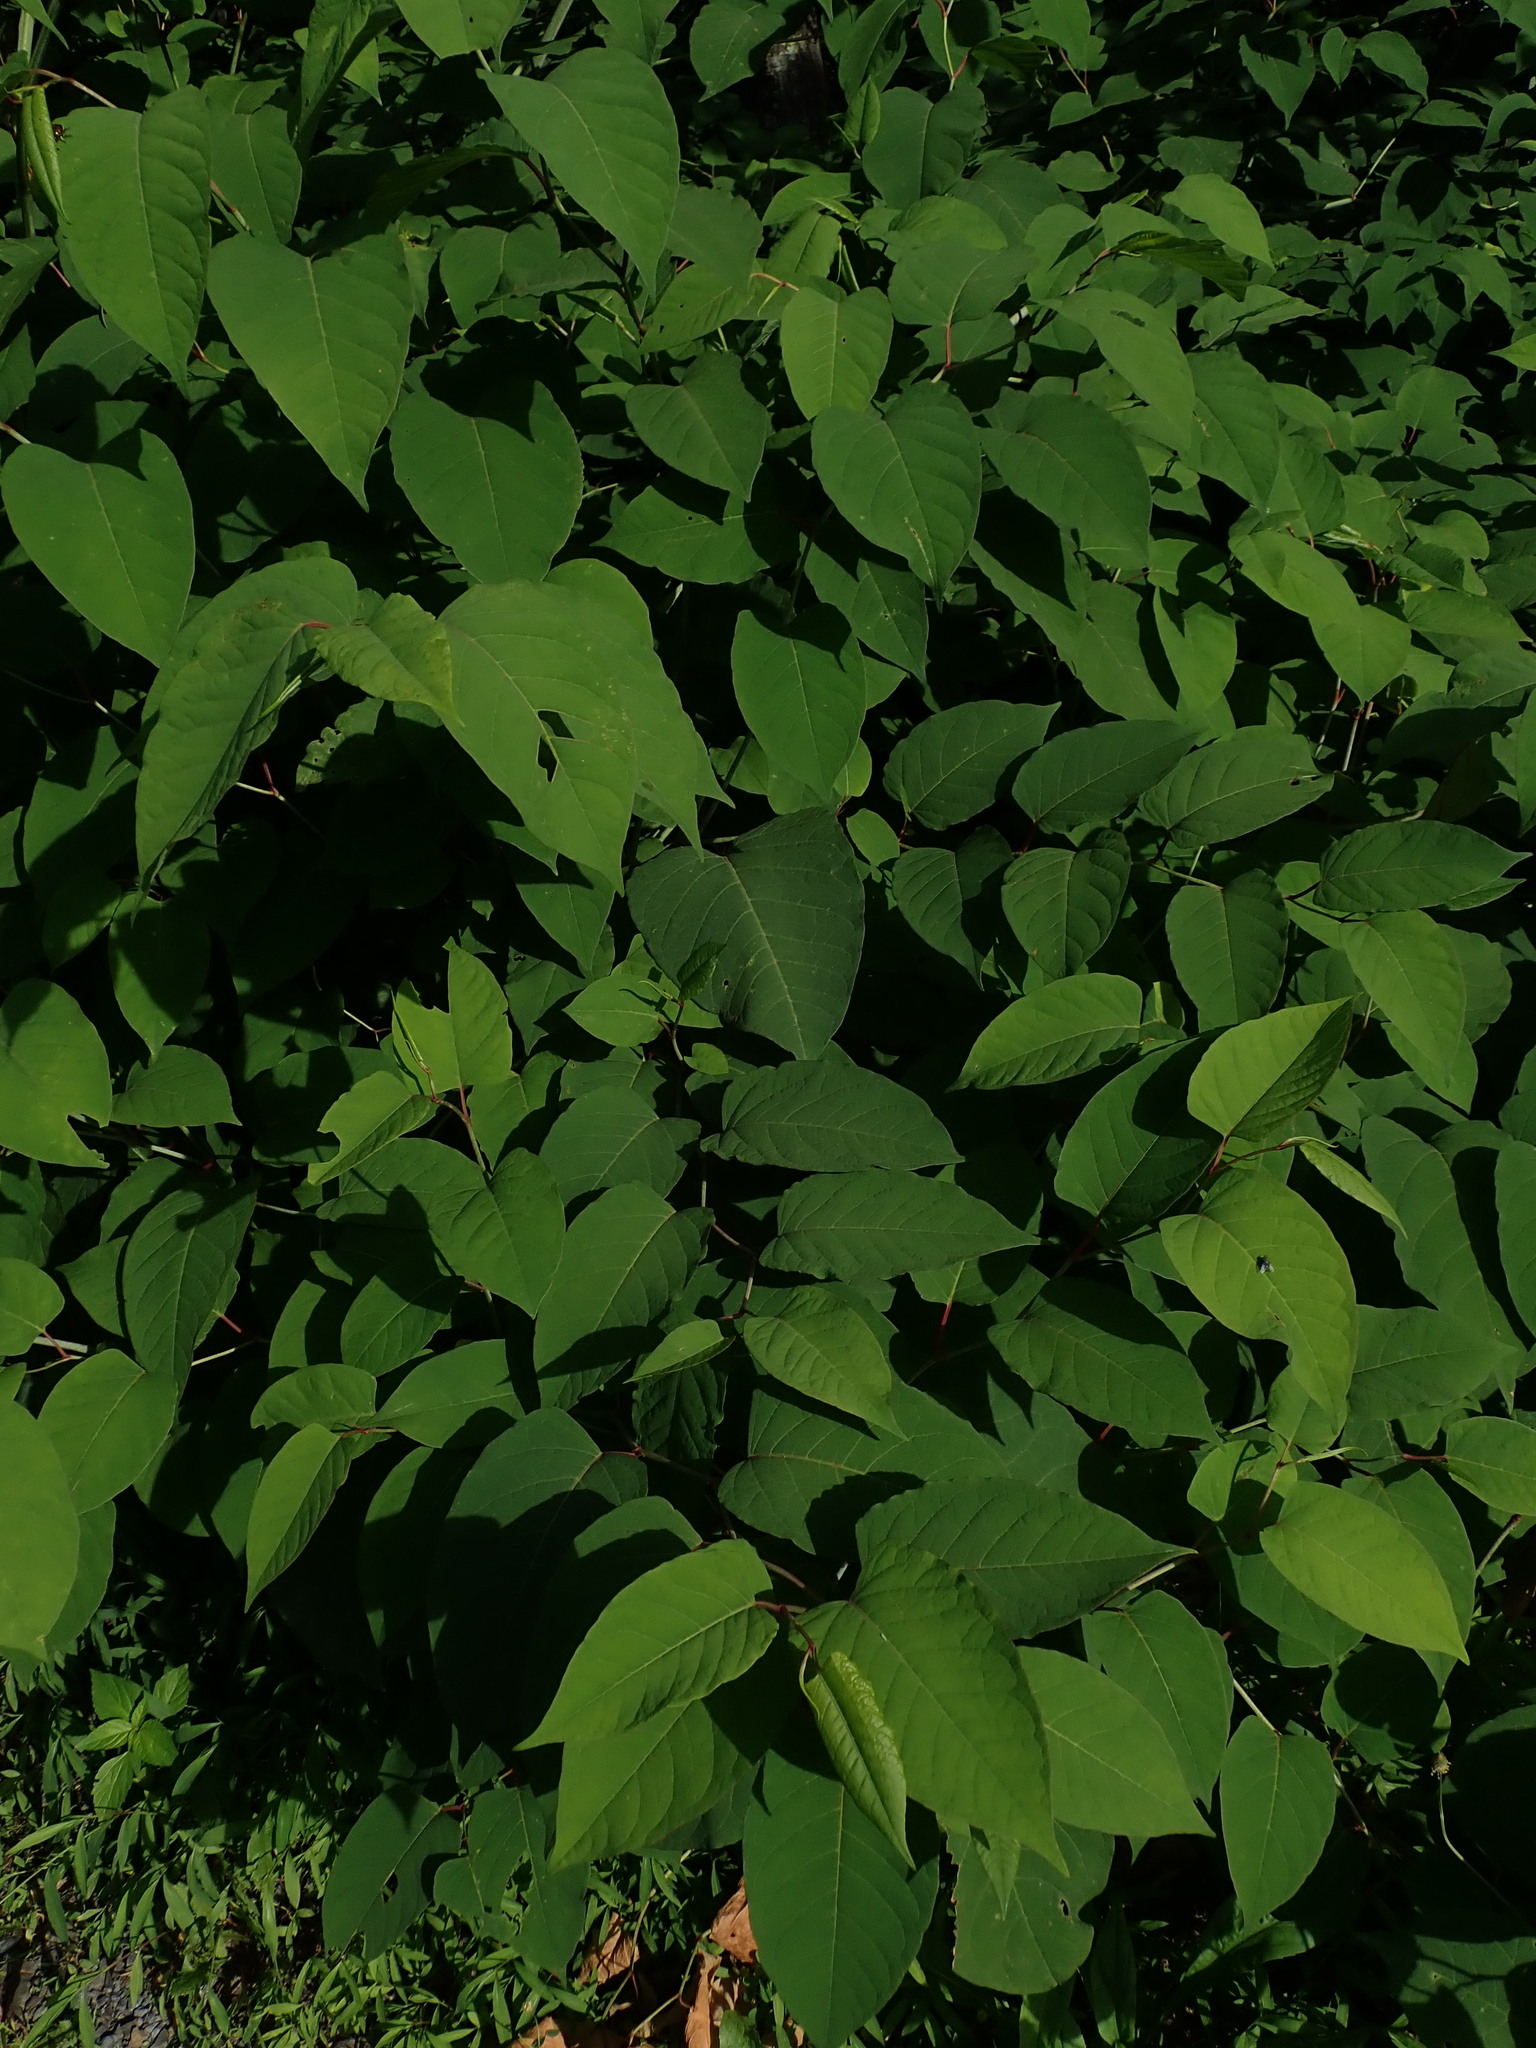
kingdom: Plantae
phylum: Tracheophyta
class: Magnoliopsida
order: Caryophyllales
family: Polygonaceae
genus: Reynoutria
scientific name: Reynoutria japonica
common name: Japanese knotweed
